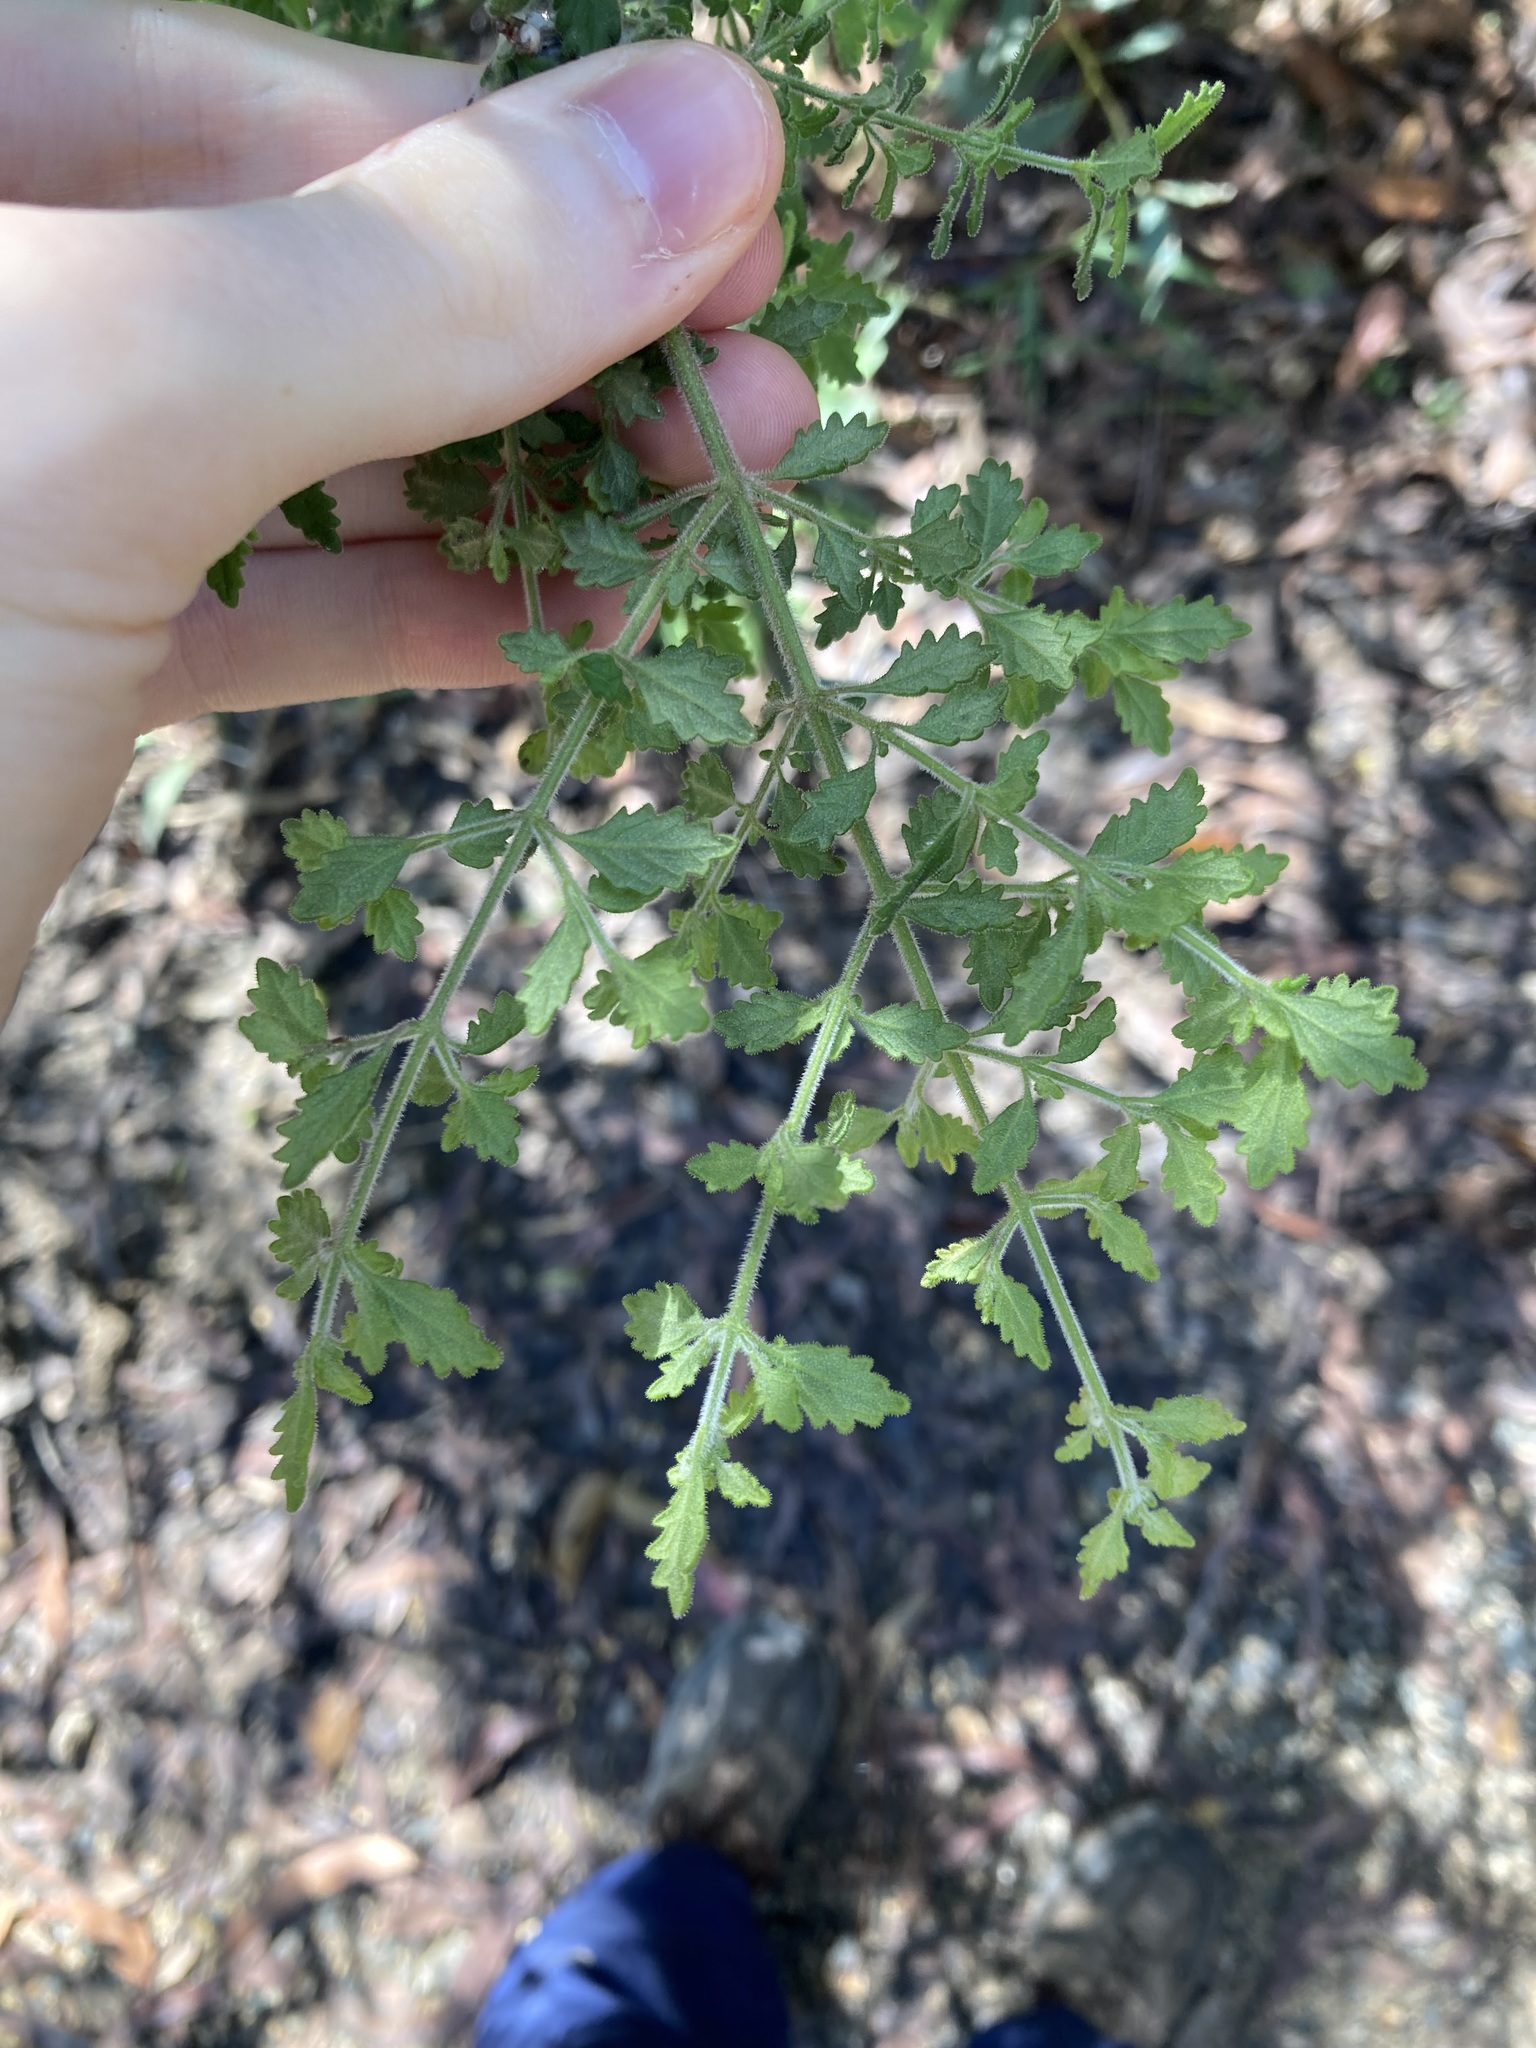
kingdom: Plantae
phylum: Tracheophyta
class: Magnoliopsida
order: Lamiales
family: Lamiaceae
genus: Prostanthera
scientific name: Prostanthera incana
